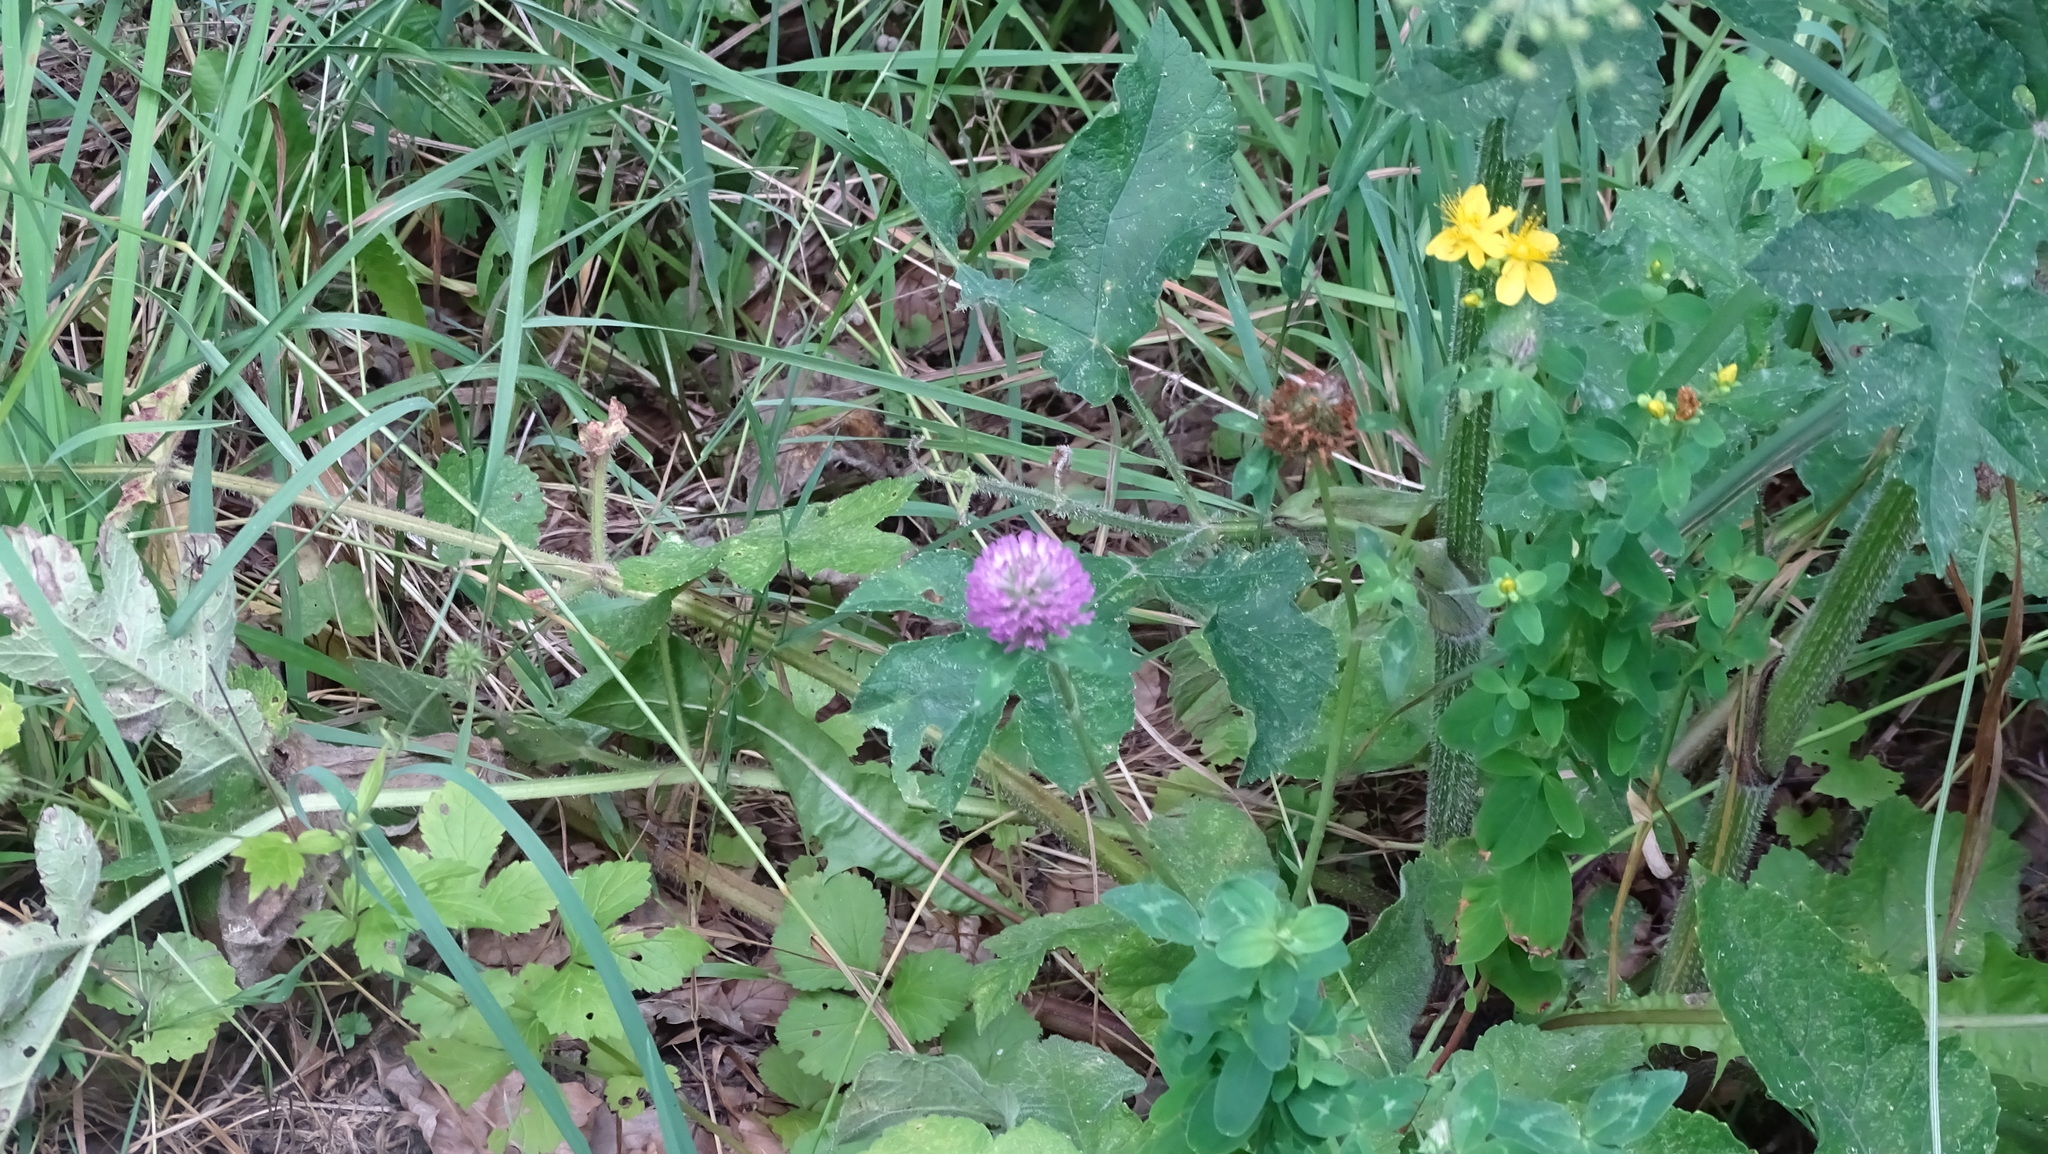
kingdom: Plantae
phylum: Tracheophyta
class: Magnoliopsida
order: Fabales
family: Fabaceae
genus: Trifolium
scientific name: Trifolium pratense
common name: Red clover
